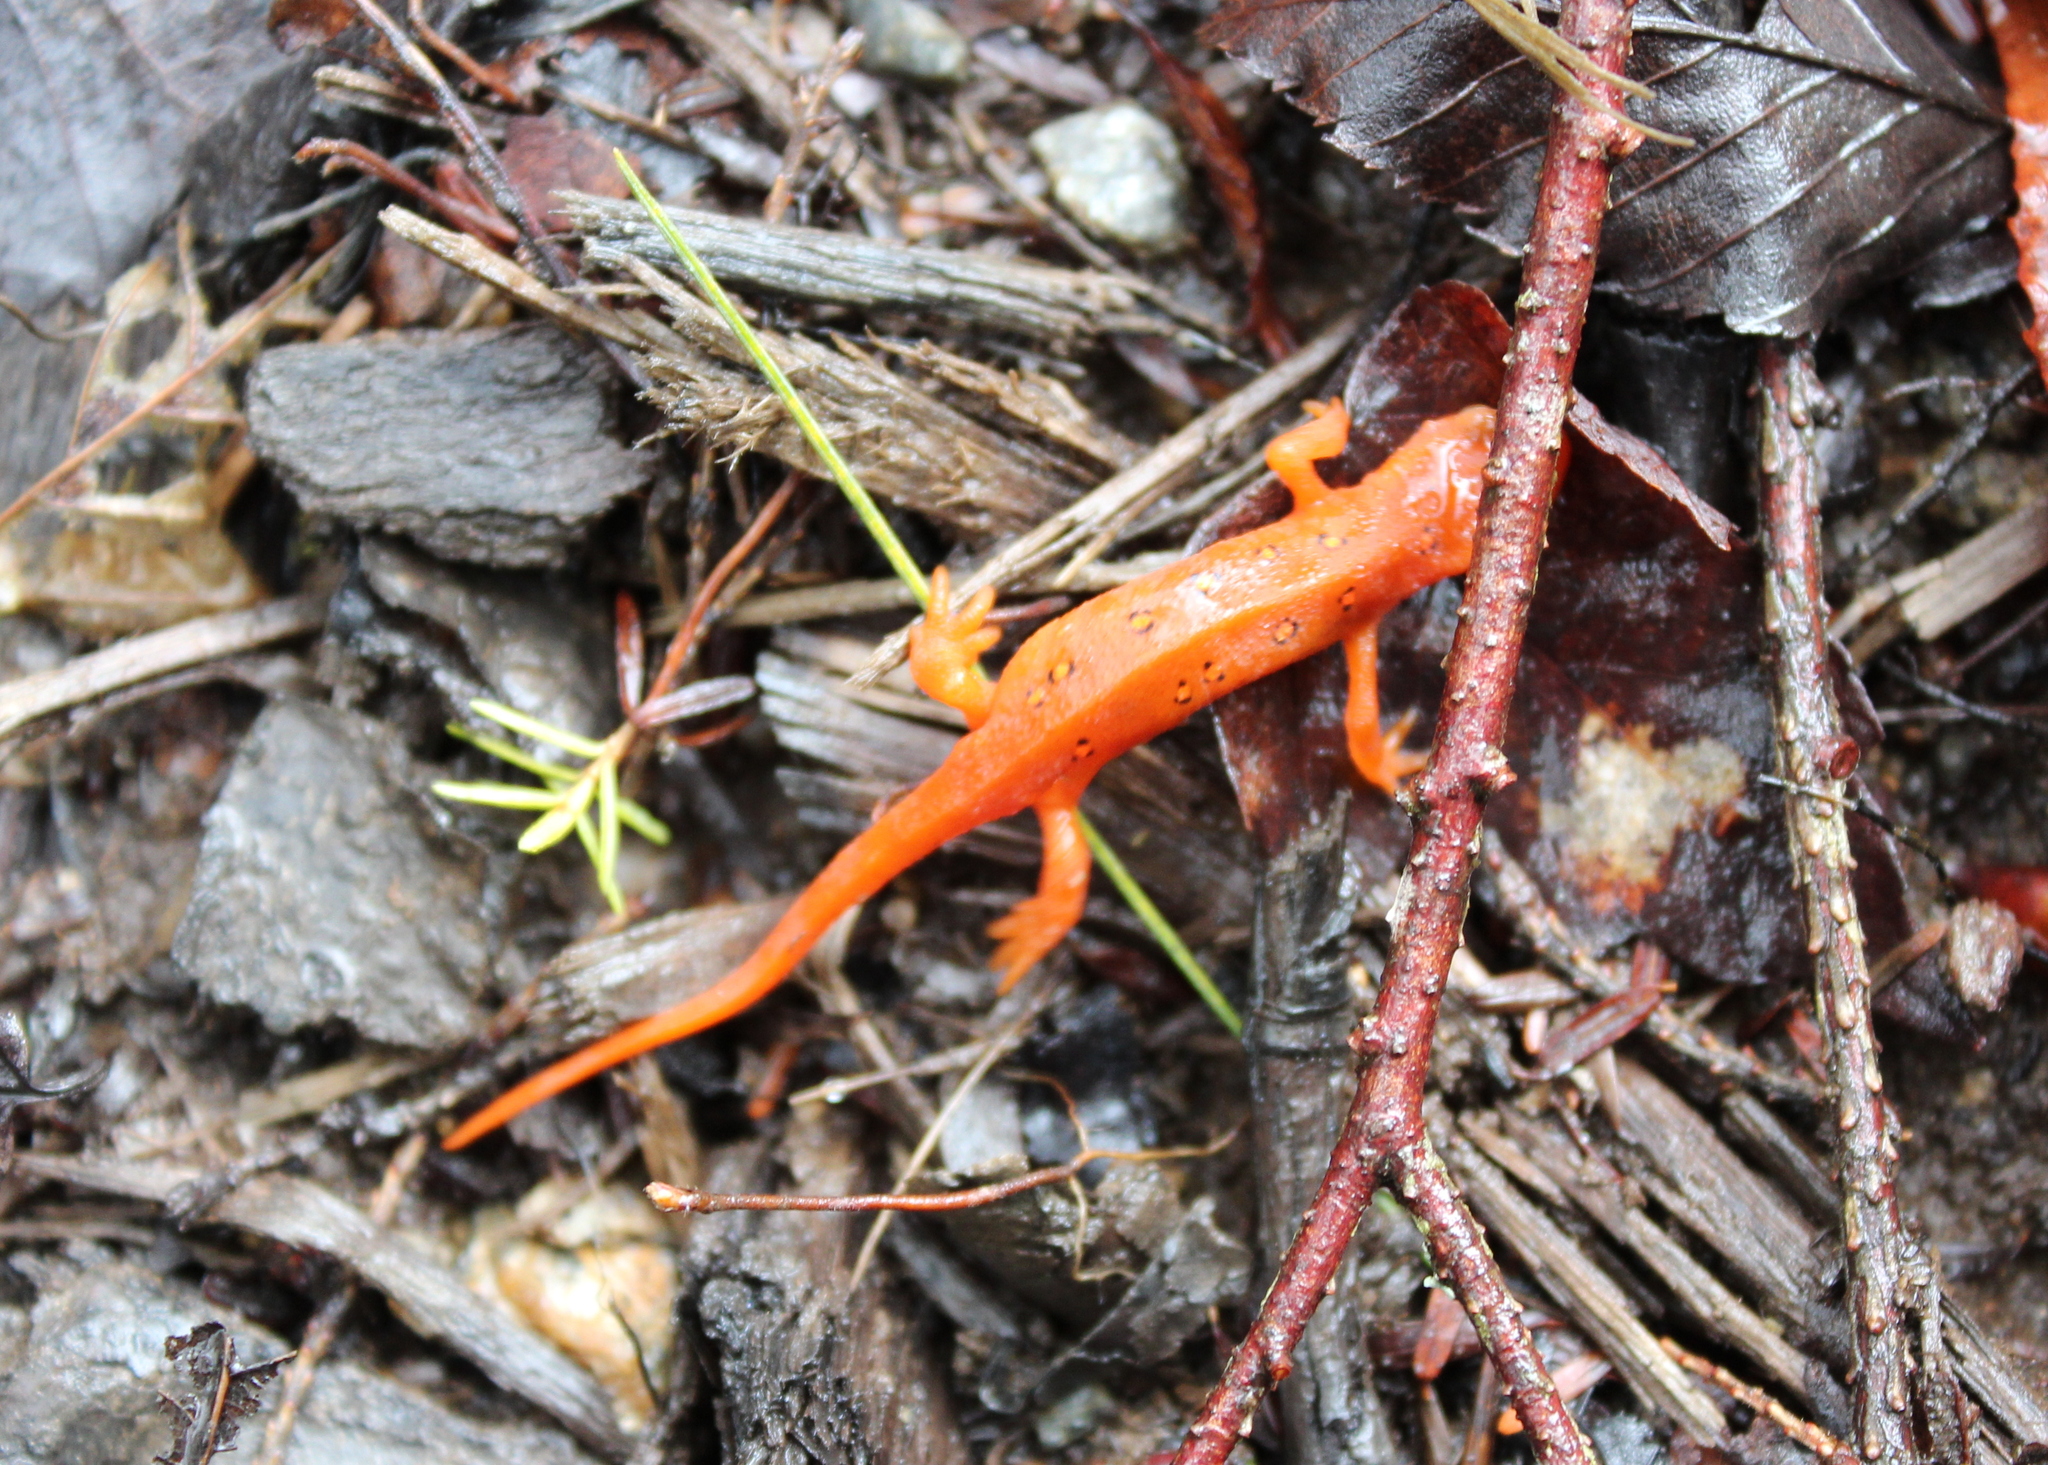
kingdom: Animalia
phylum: Chordata
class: Amphibia
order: Caudata
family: Salamandridae
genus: Notophthalmus
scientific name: Notophthalmus viridescens
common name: Eastern newt
